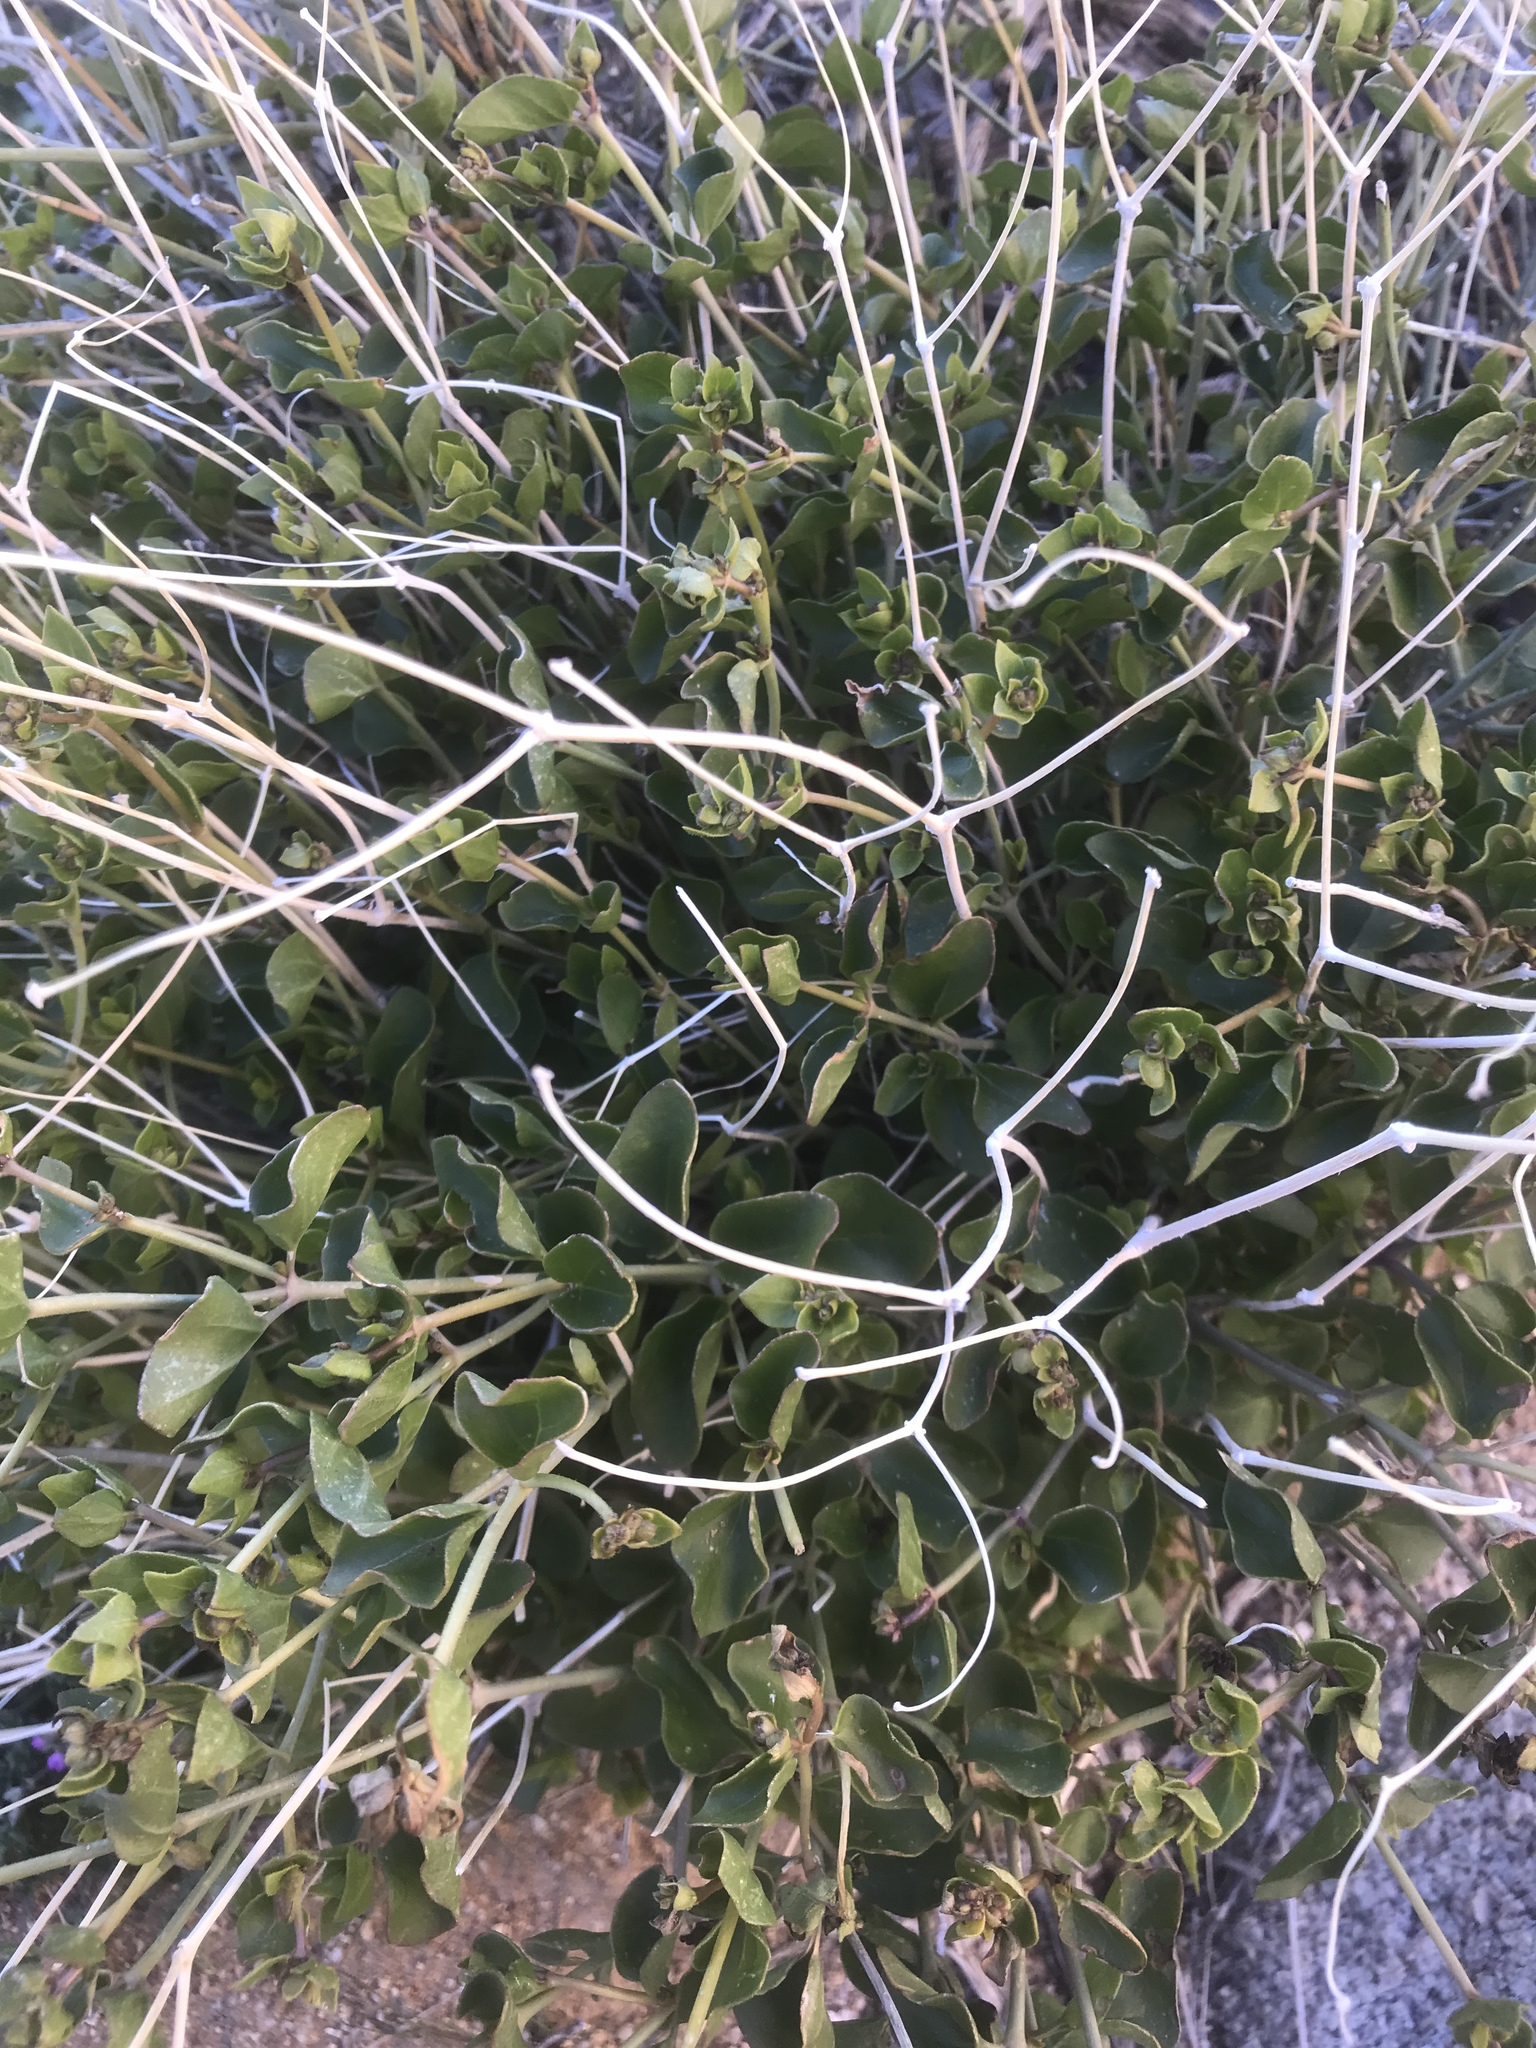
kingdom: Plantae
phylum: Tracheophyta
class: Magnoliopsida
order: Caryophyllales
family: Nyctaginaceae
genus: Mirabilis
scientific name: Mirabilis laevis
